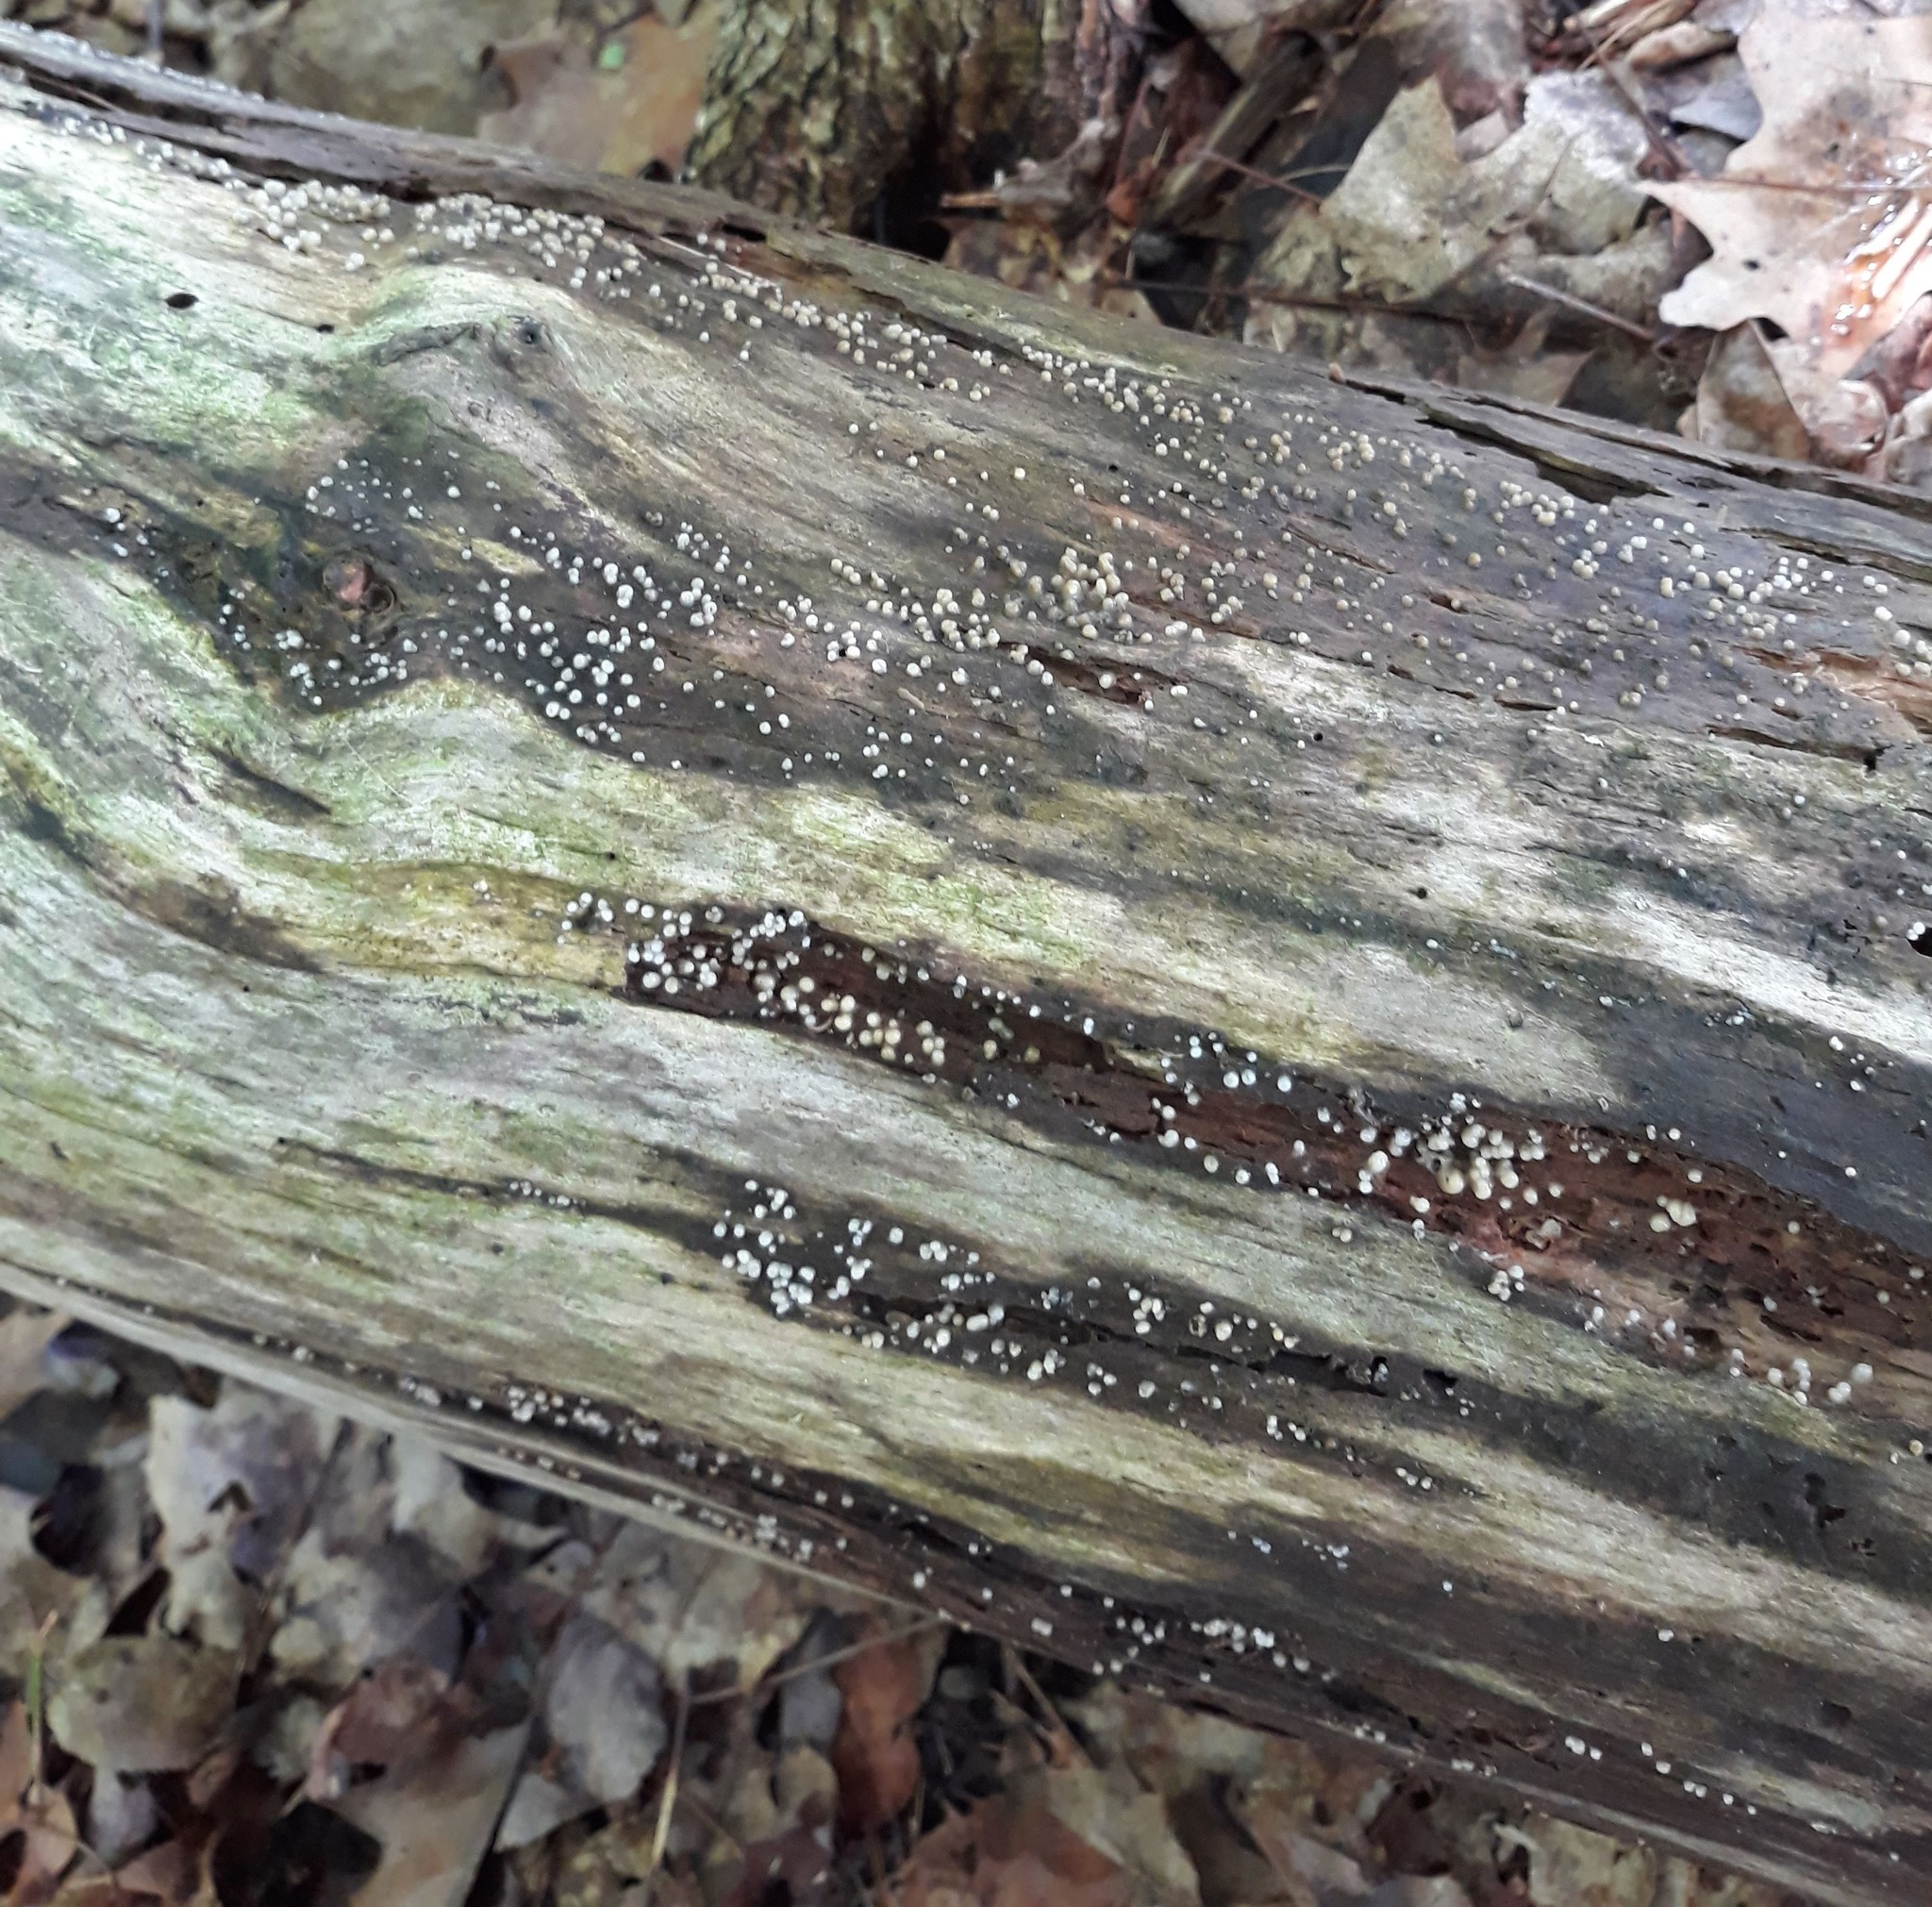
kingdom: Fungi
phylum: Basidiomycota
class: Atractiellomycetes
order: Atractiellales
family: Phleogenaceae
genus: Helicogloea
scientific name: Helicogloea compressa
